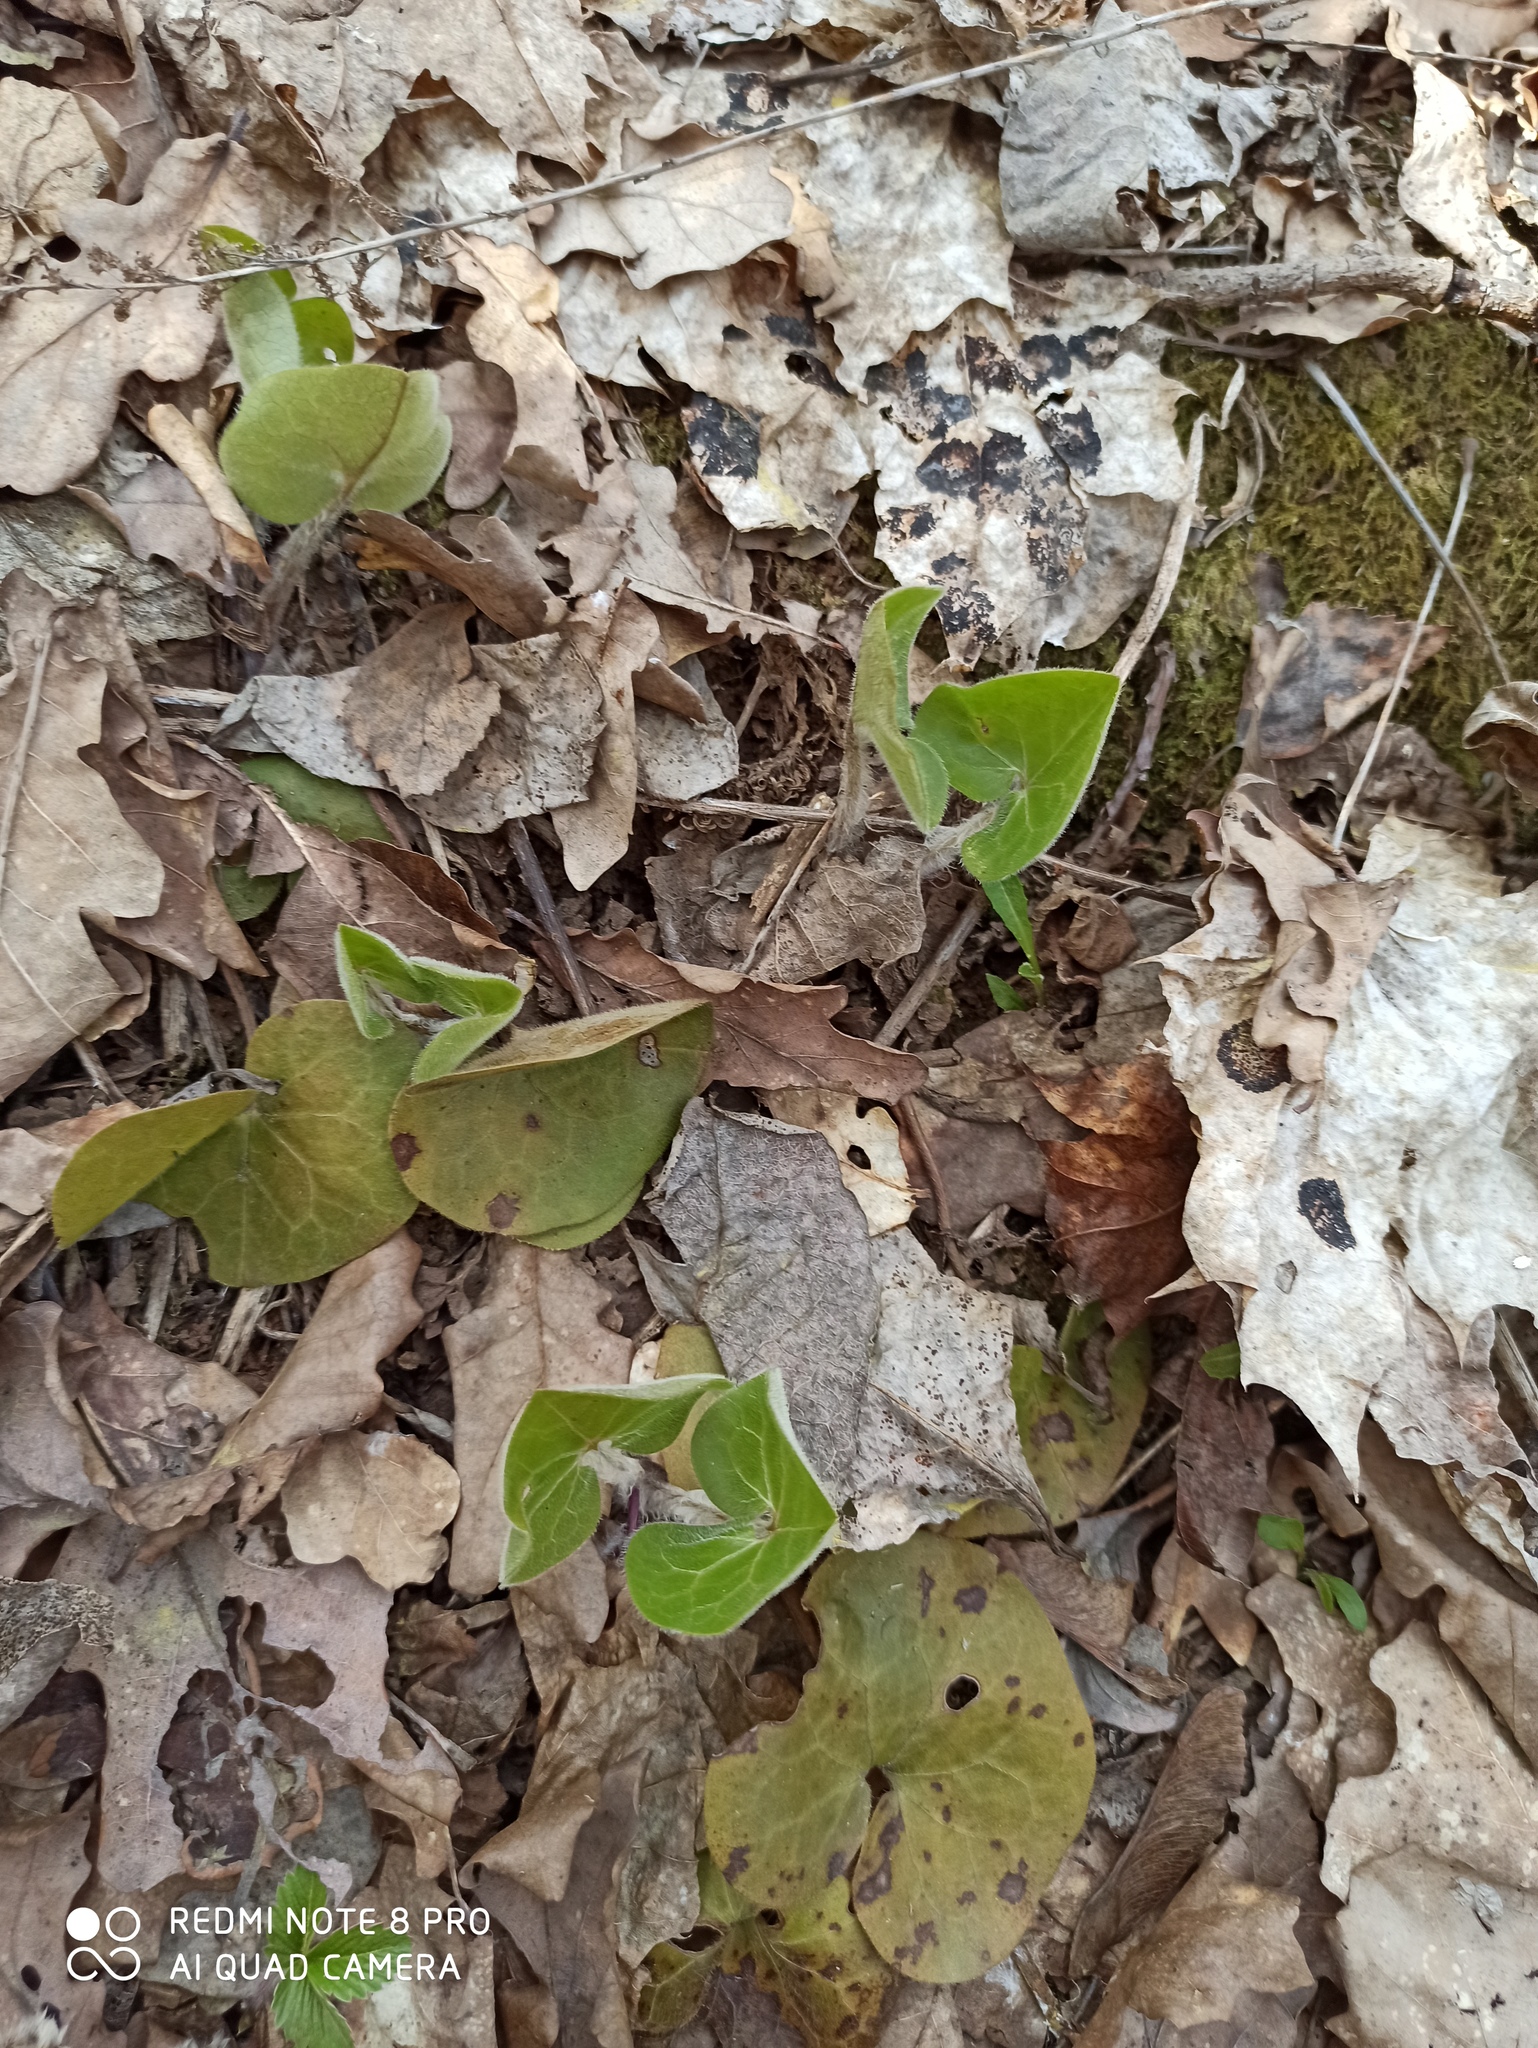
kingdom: Plantae
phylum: Tracheophyta
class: Magnoliopsida
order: Piperales
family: Aristolochiaceae
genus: Asarum
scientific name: Asarum europaeum
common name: Asarabacca
